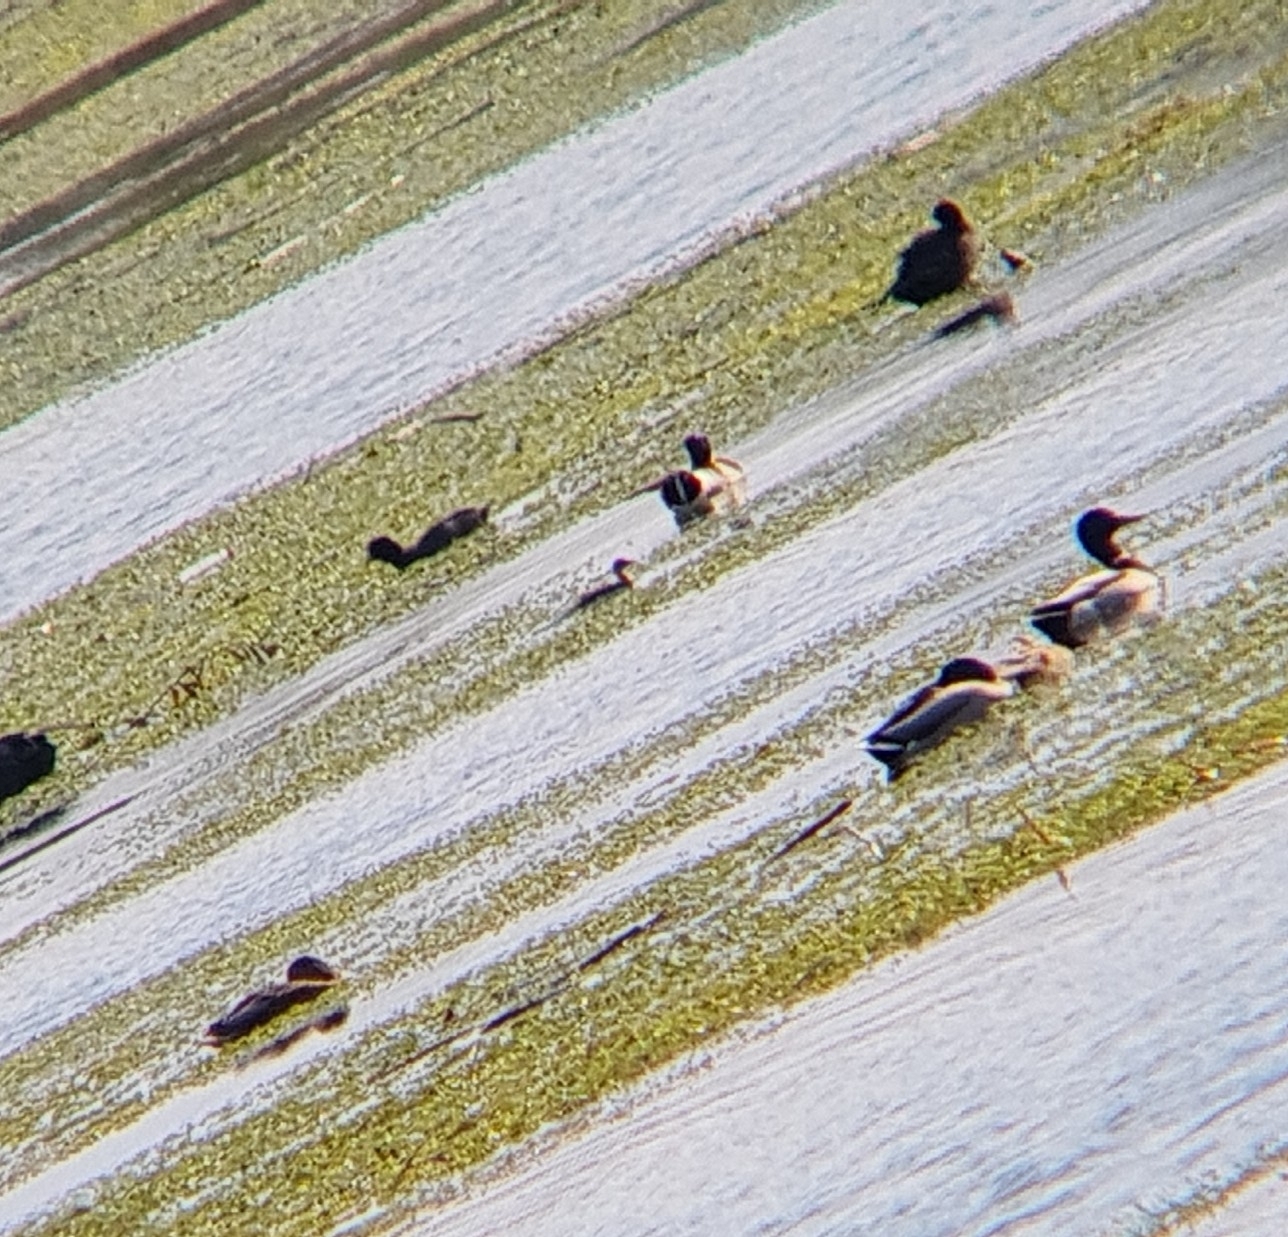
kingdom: Animalia
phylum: Chordata
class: Aves
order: Podicipediformes
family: Podicipedidae
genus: Tachybaptus
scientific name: Tachybaptus ruficollis
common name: Little grebe
